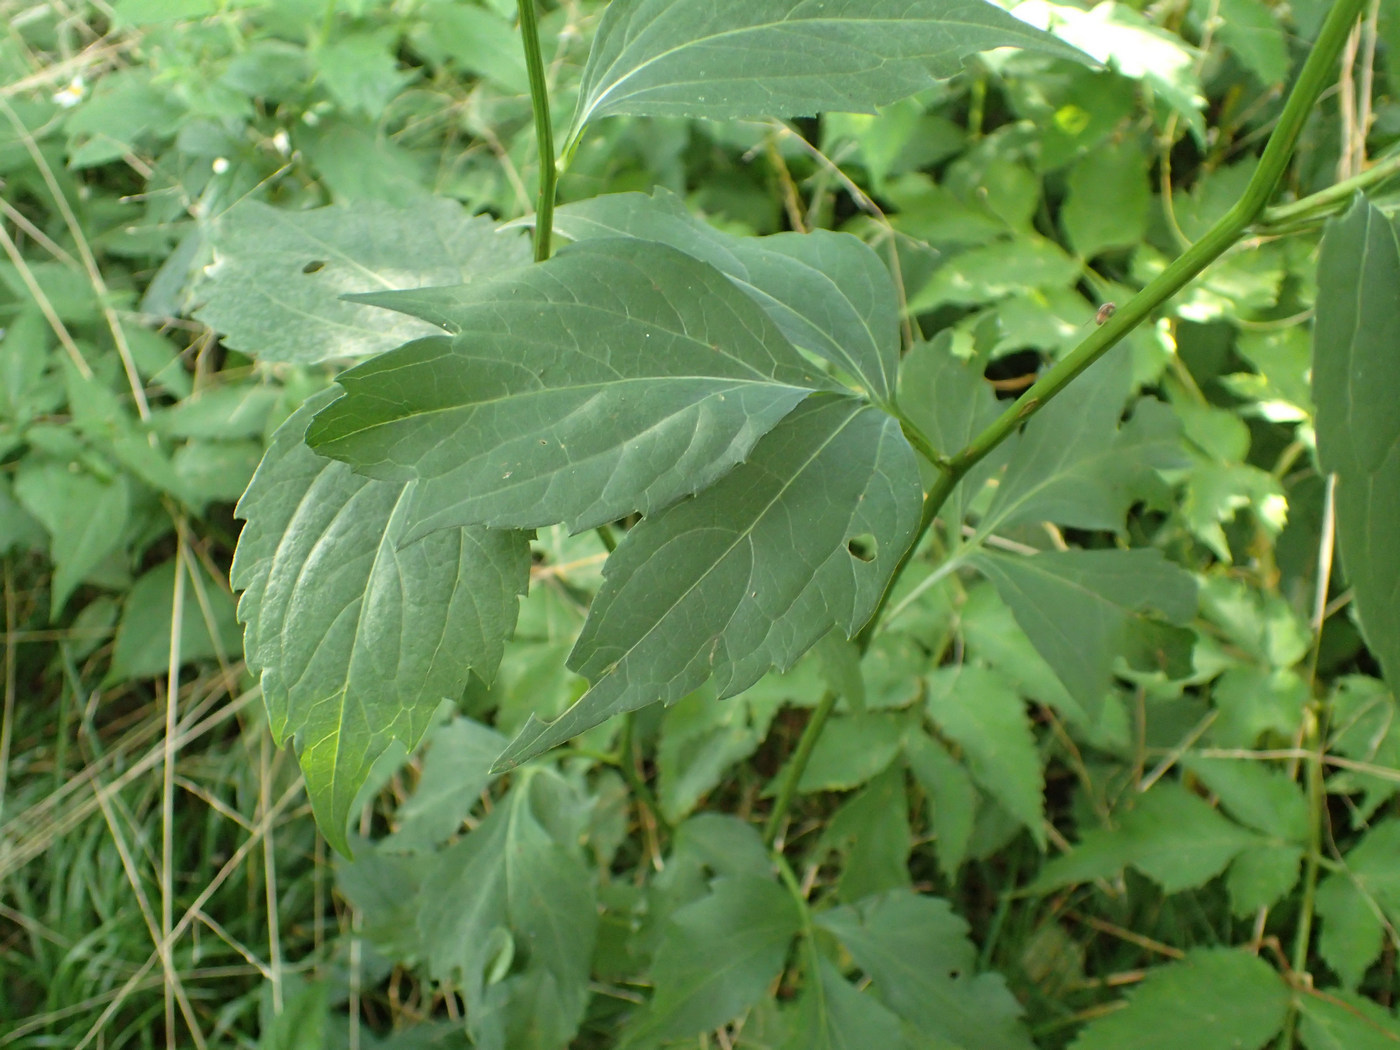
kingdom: Plantae
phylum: Tracheophyta
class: Magnoliopsida
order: Asterales
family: Asteraceae
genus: Rudbeckia
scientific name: Rudbeckia laciniata
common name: Coneflower
